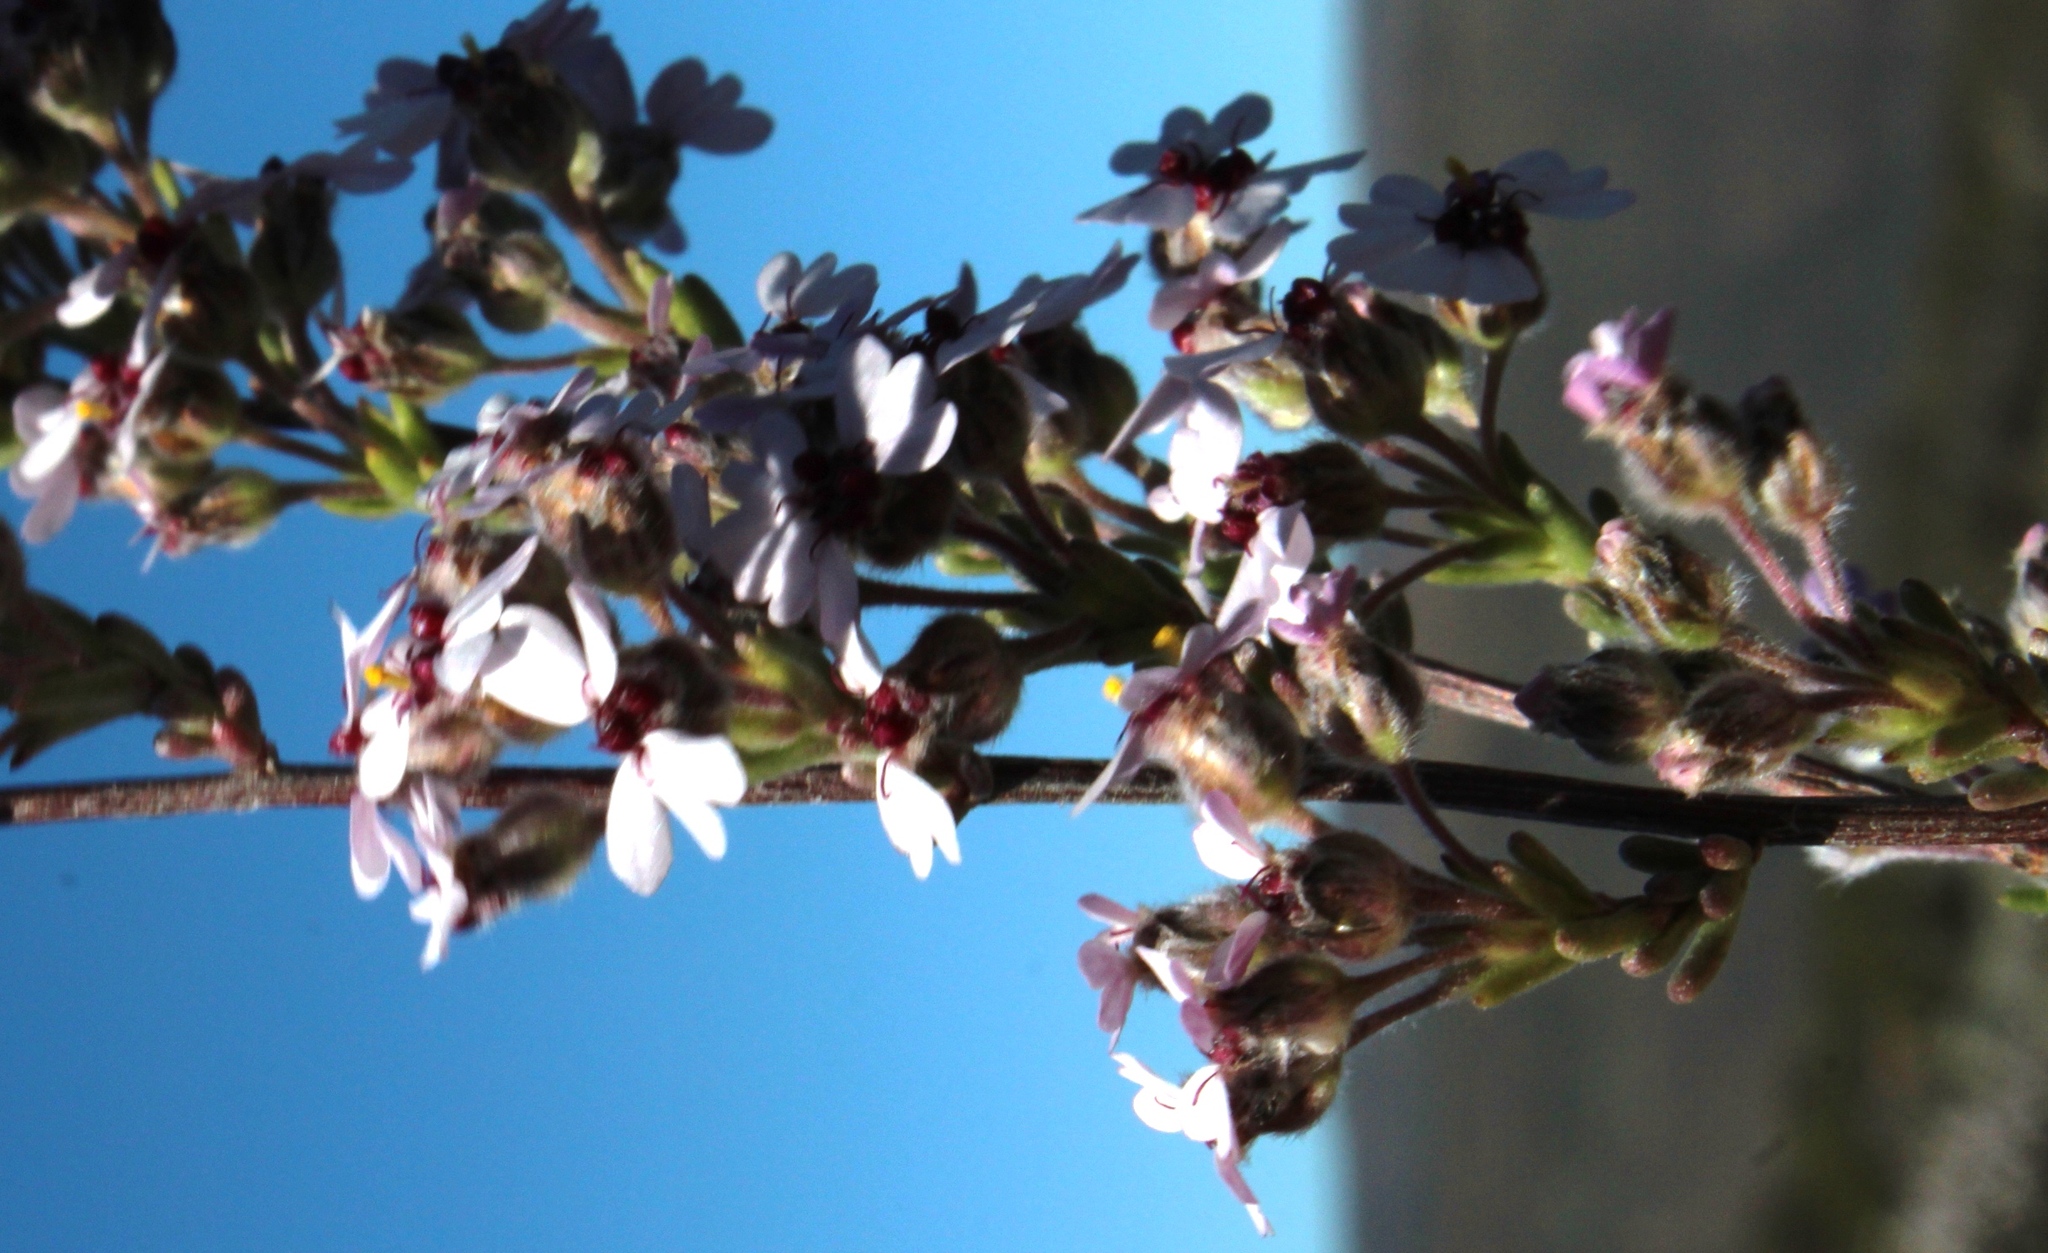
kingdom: Plantae
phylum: Tracheophyta
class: Magnoliopsida
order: Asterales
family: Asteraceae
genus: Eriocephalus
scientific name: Eriocephalus africanus
